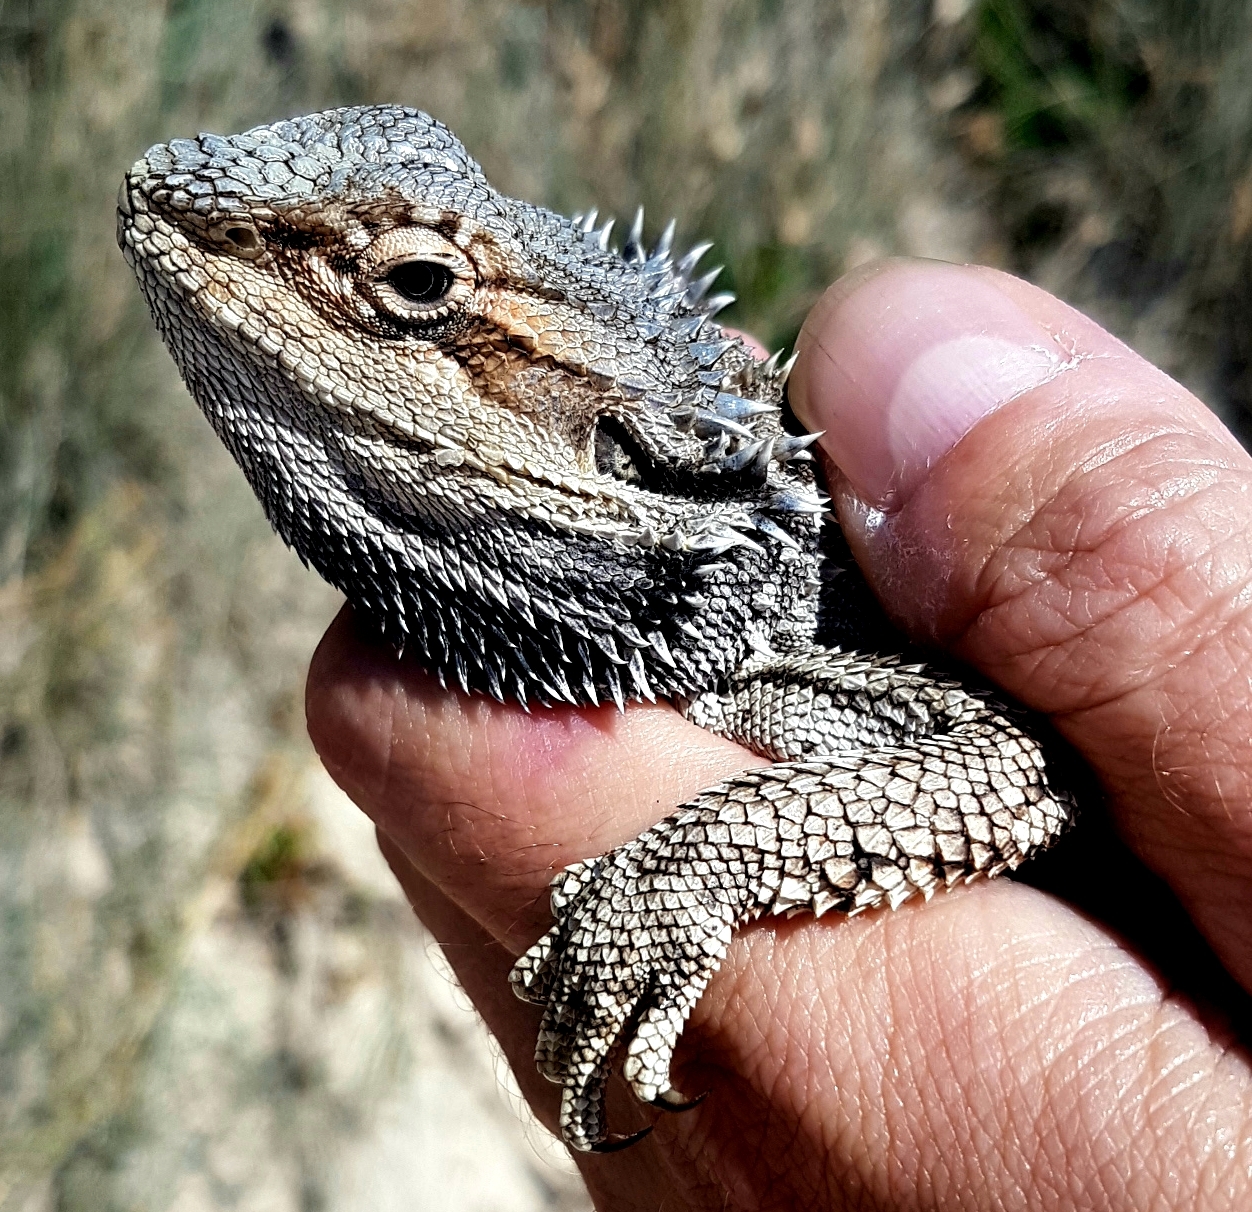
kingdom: Animalia
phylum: Chordata
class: Squamata
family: Agamidae
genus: Pogona
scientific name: Pogona barbata
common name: Bearded dragon
